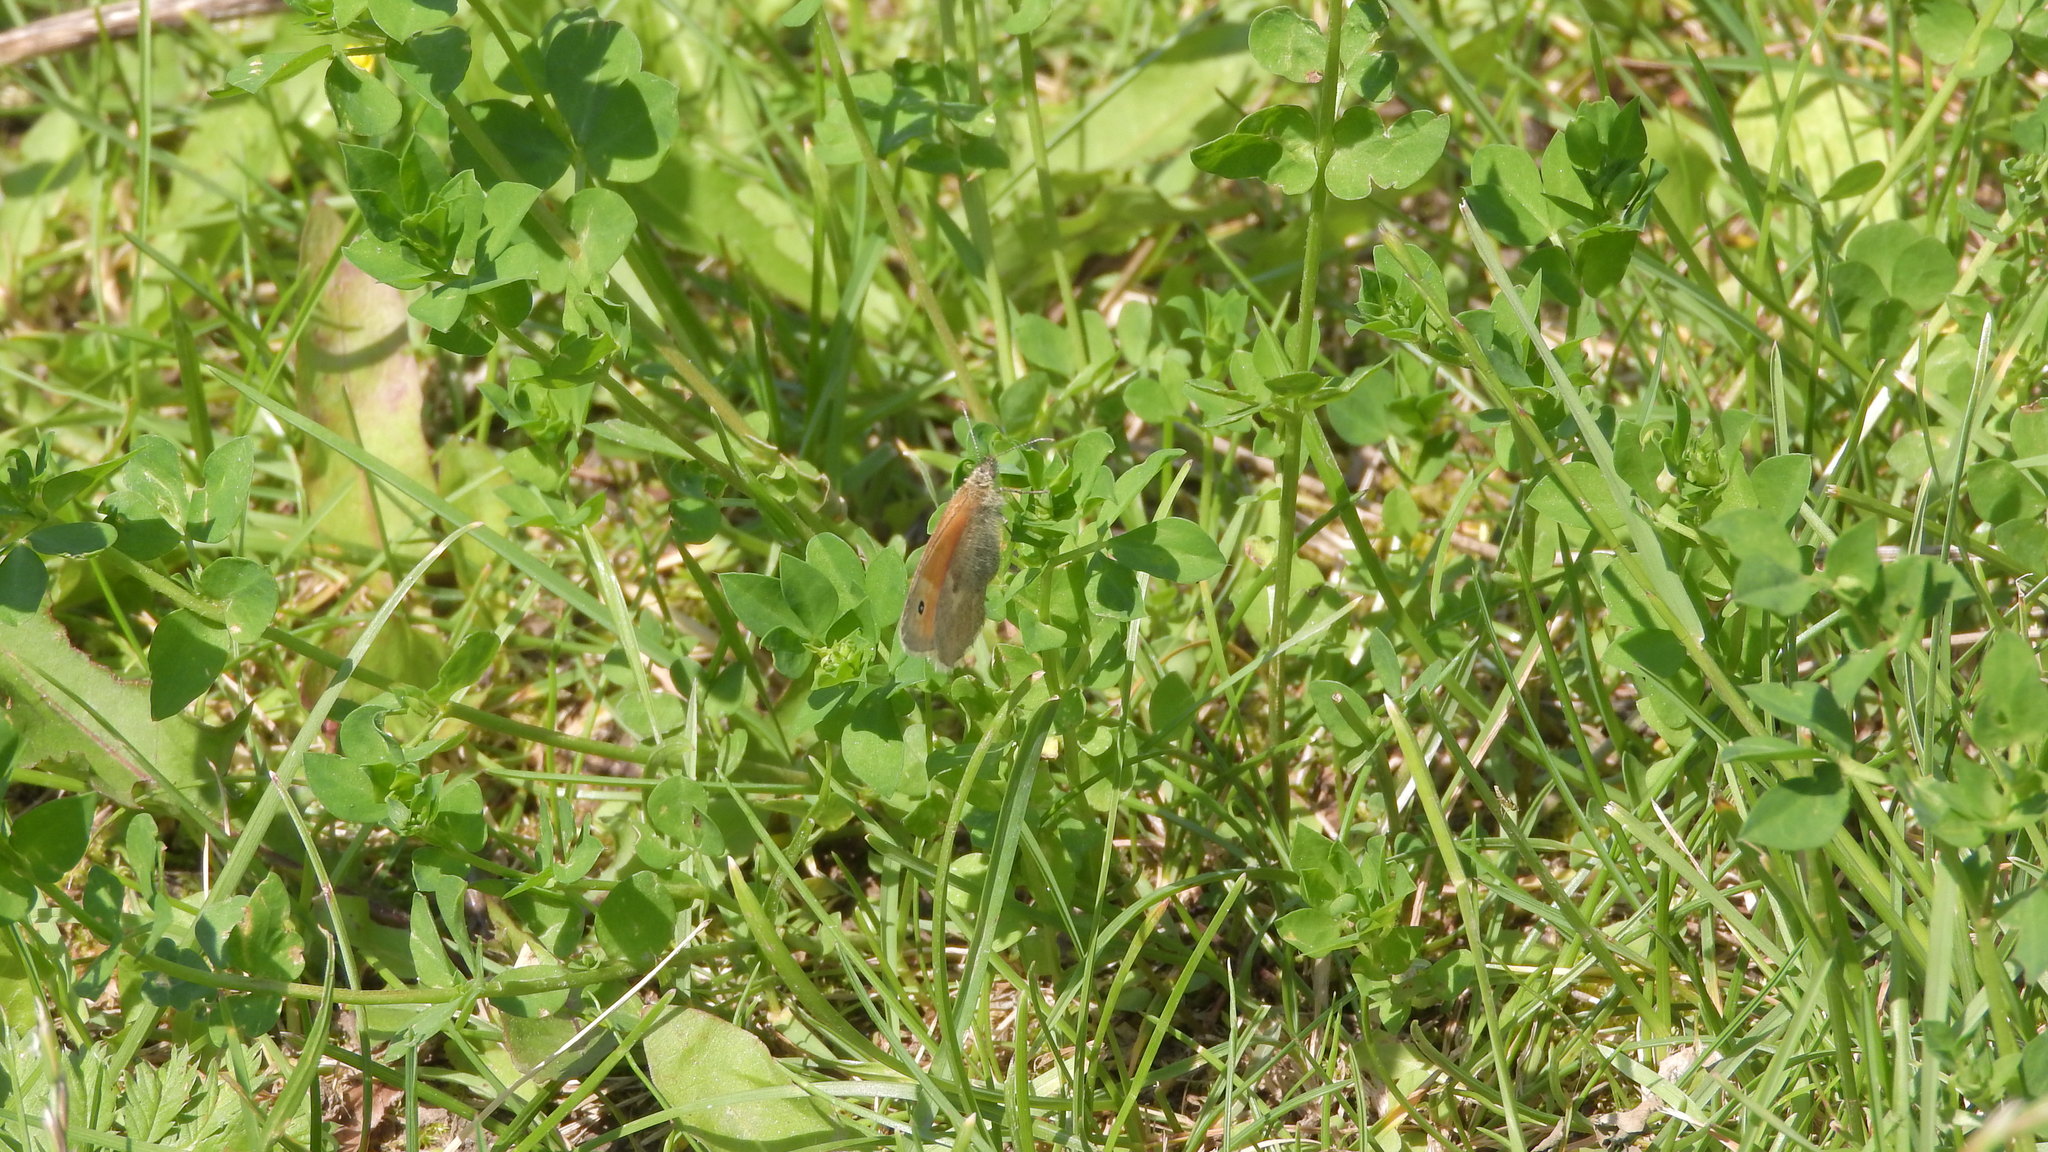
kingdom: Animalia
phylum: Arthropoda
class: Insecta
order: Lepidoptera
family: Nymphalidae
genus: Coenonympha
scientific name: Coenonympha pamphilus
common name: Small heath
